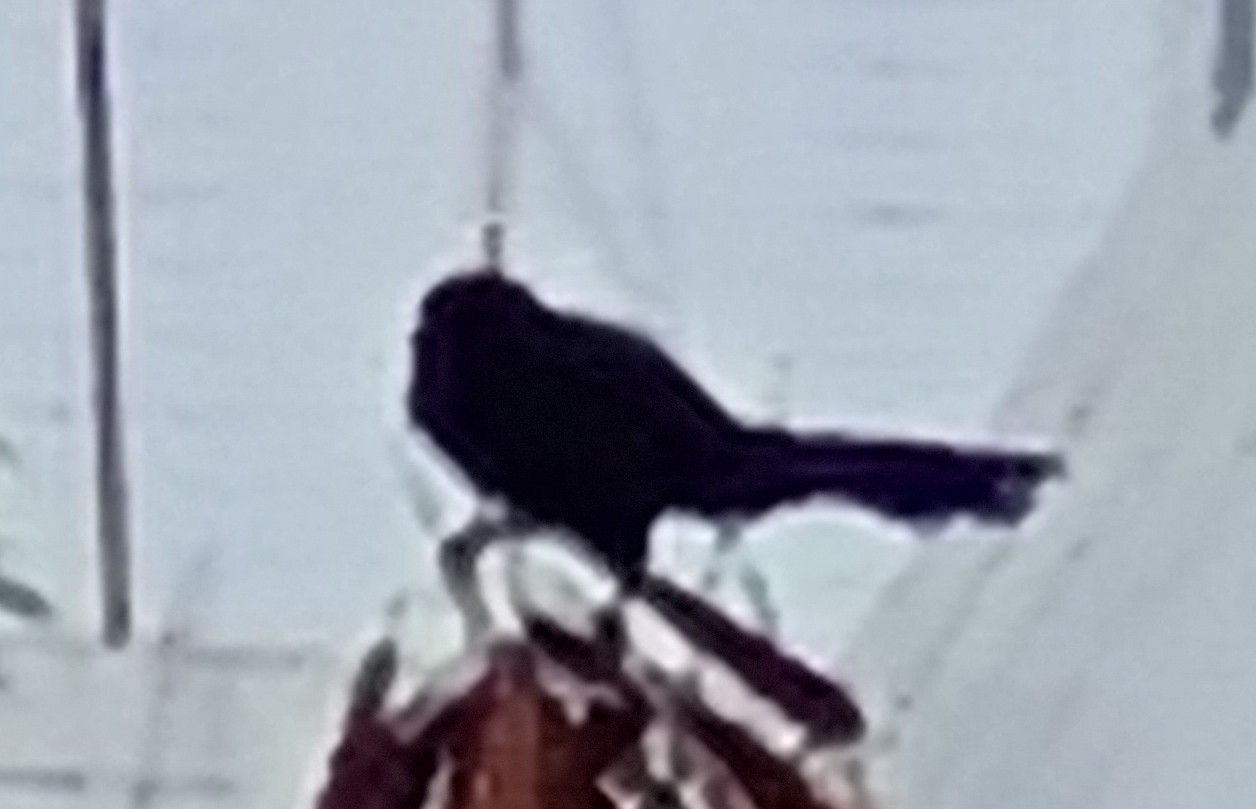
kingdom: Animalia
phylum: Chordata
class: Aves
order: Cuculiformes
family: Cuculidae
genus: Crotophaga
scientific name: Crotophaga ani
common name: Smooth-billed ani
